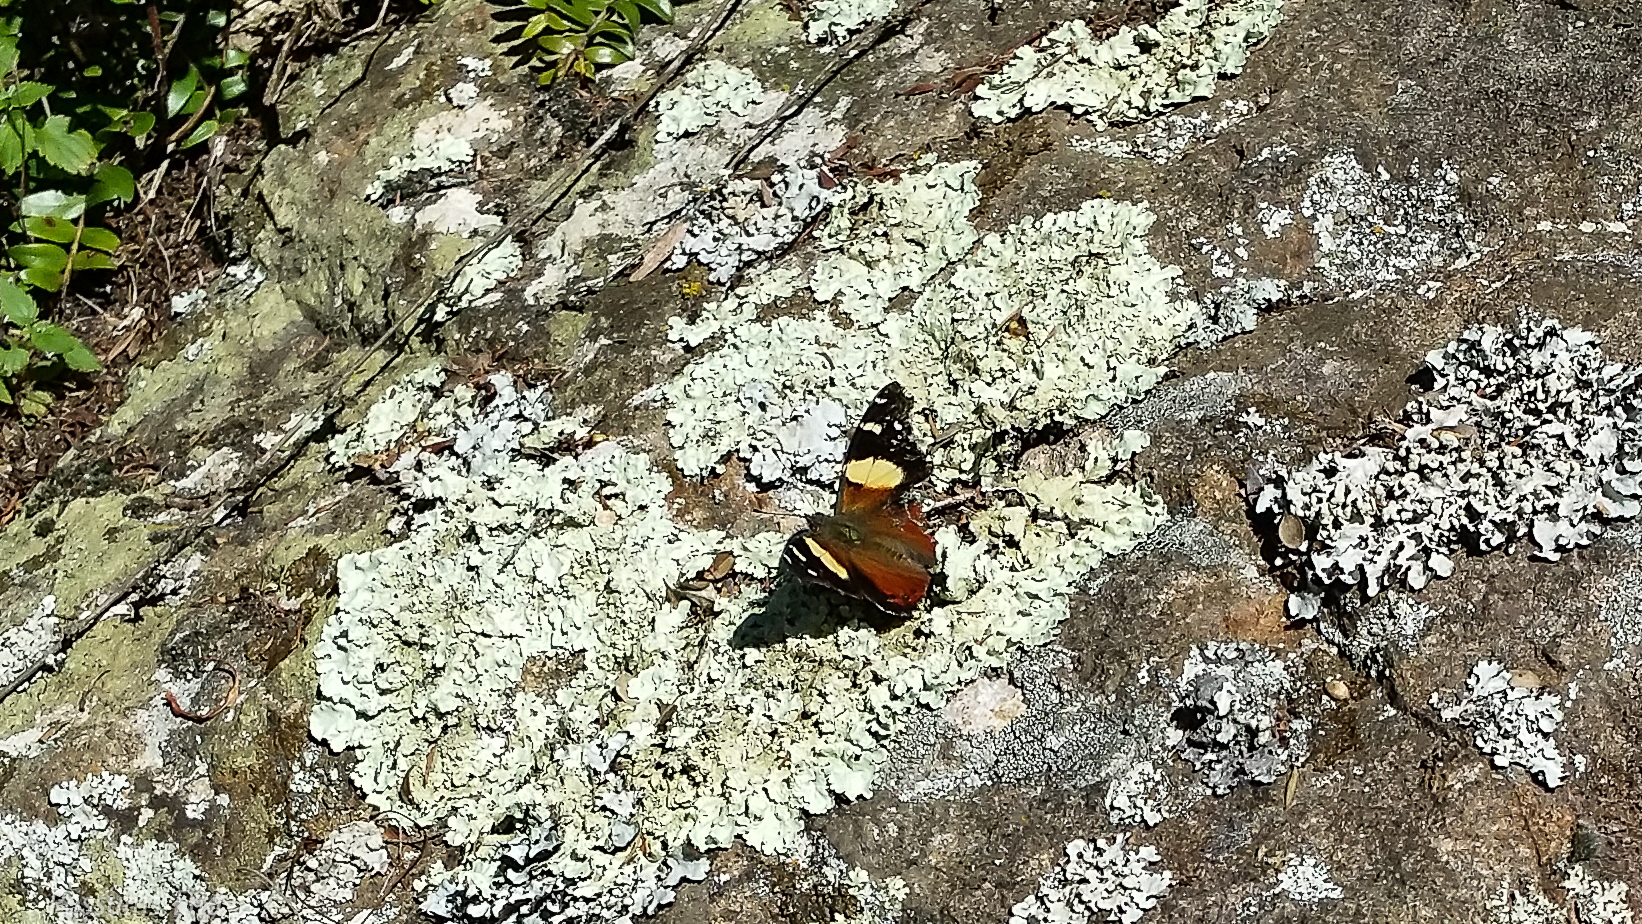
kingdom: Animalia
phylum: Arthropoda
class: Insecta
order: Lepidoptera
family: Nymphalidae
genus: Vanessa
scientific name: Vanessa itea
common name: Yellow admiral
